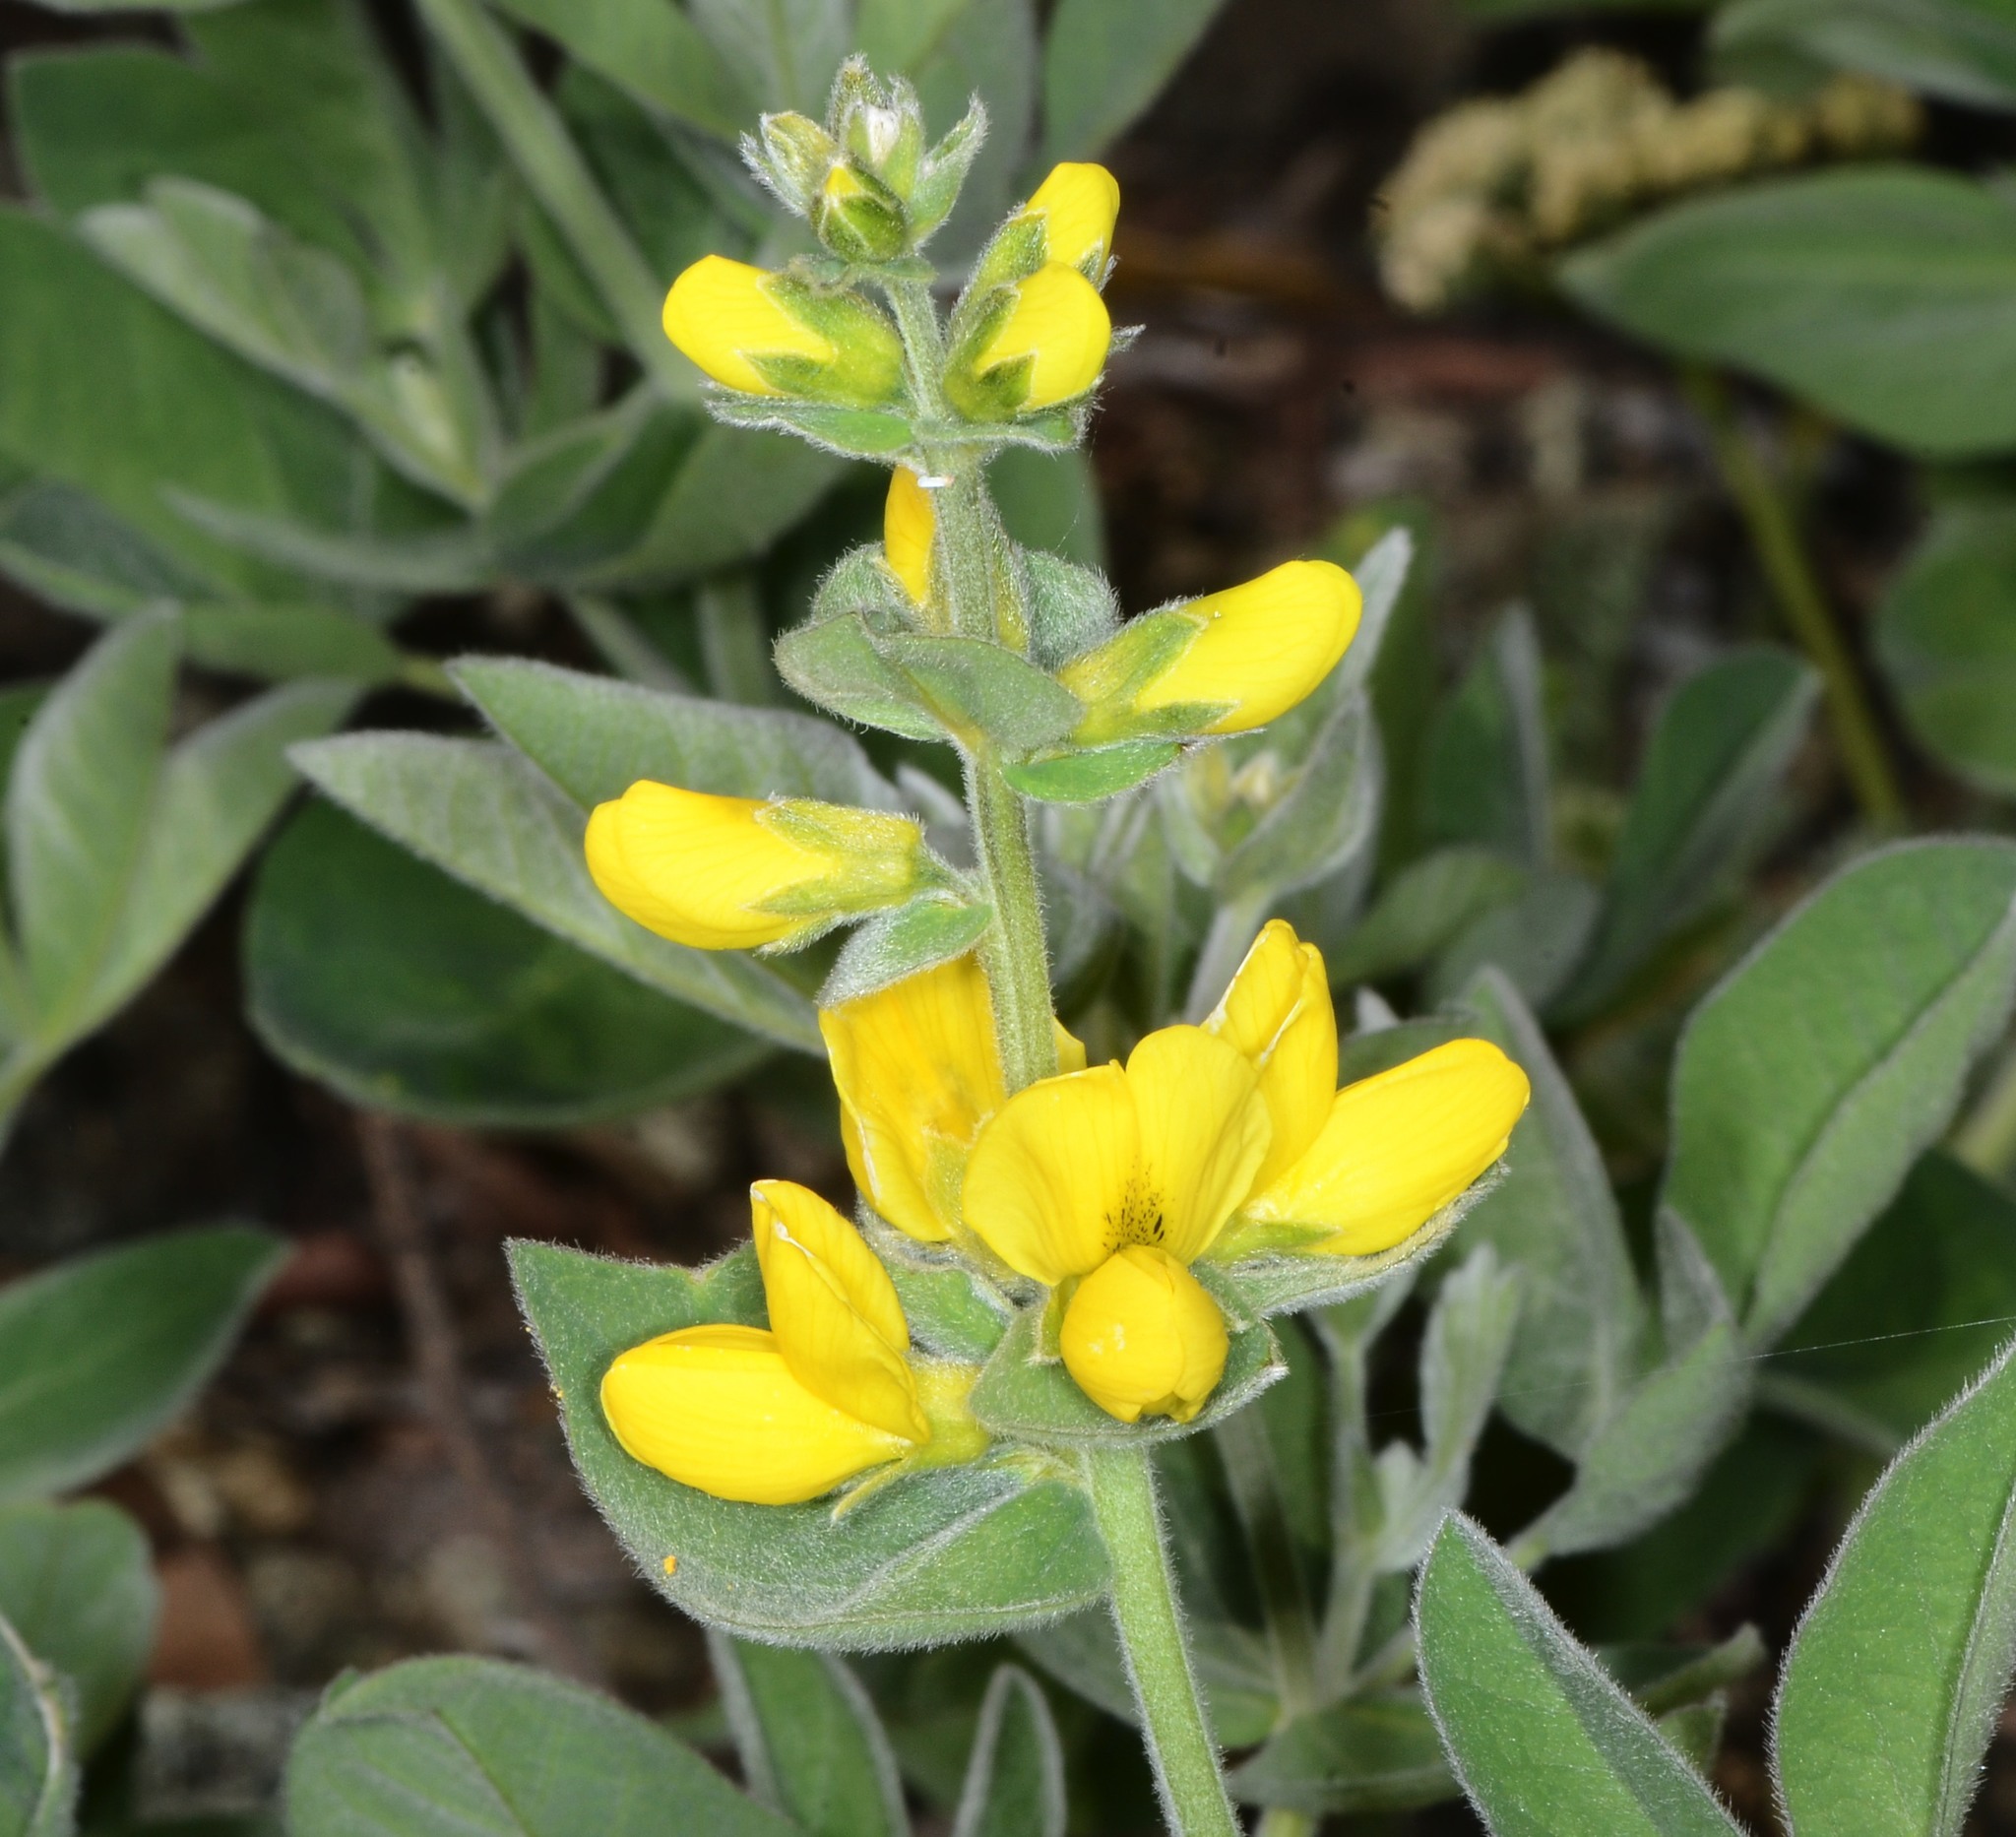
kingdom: Plantae
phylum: Tracheophyta
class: Magnoliopsida
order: Fabales
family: Fabaceae
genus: Thermopsis
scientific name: Thermopsis californica
